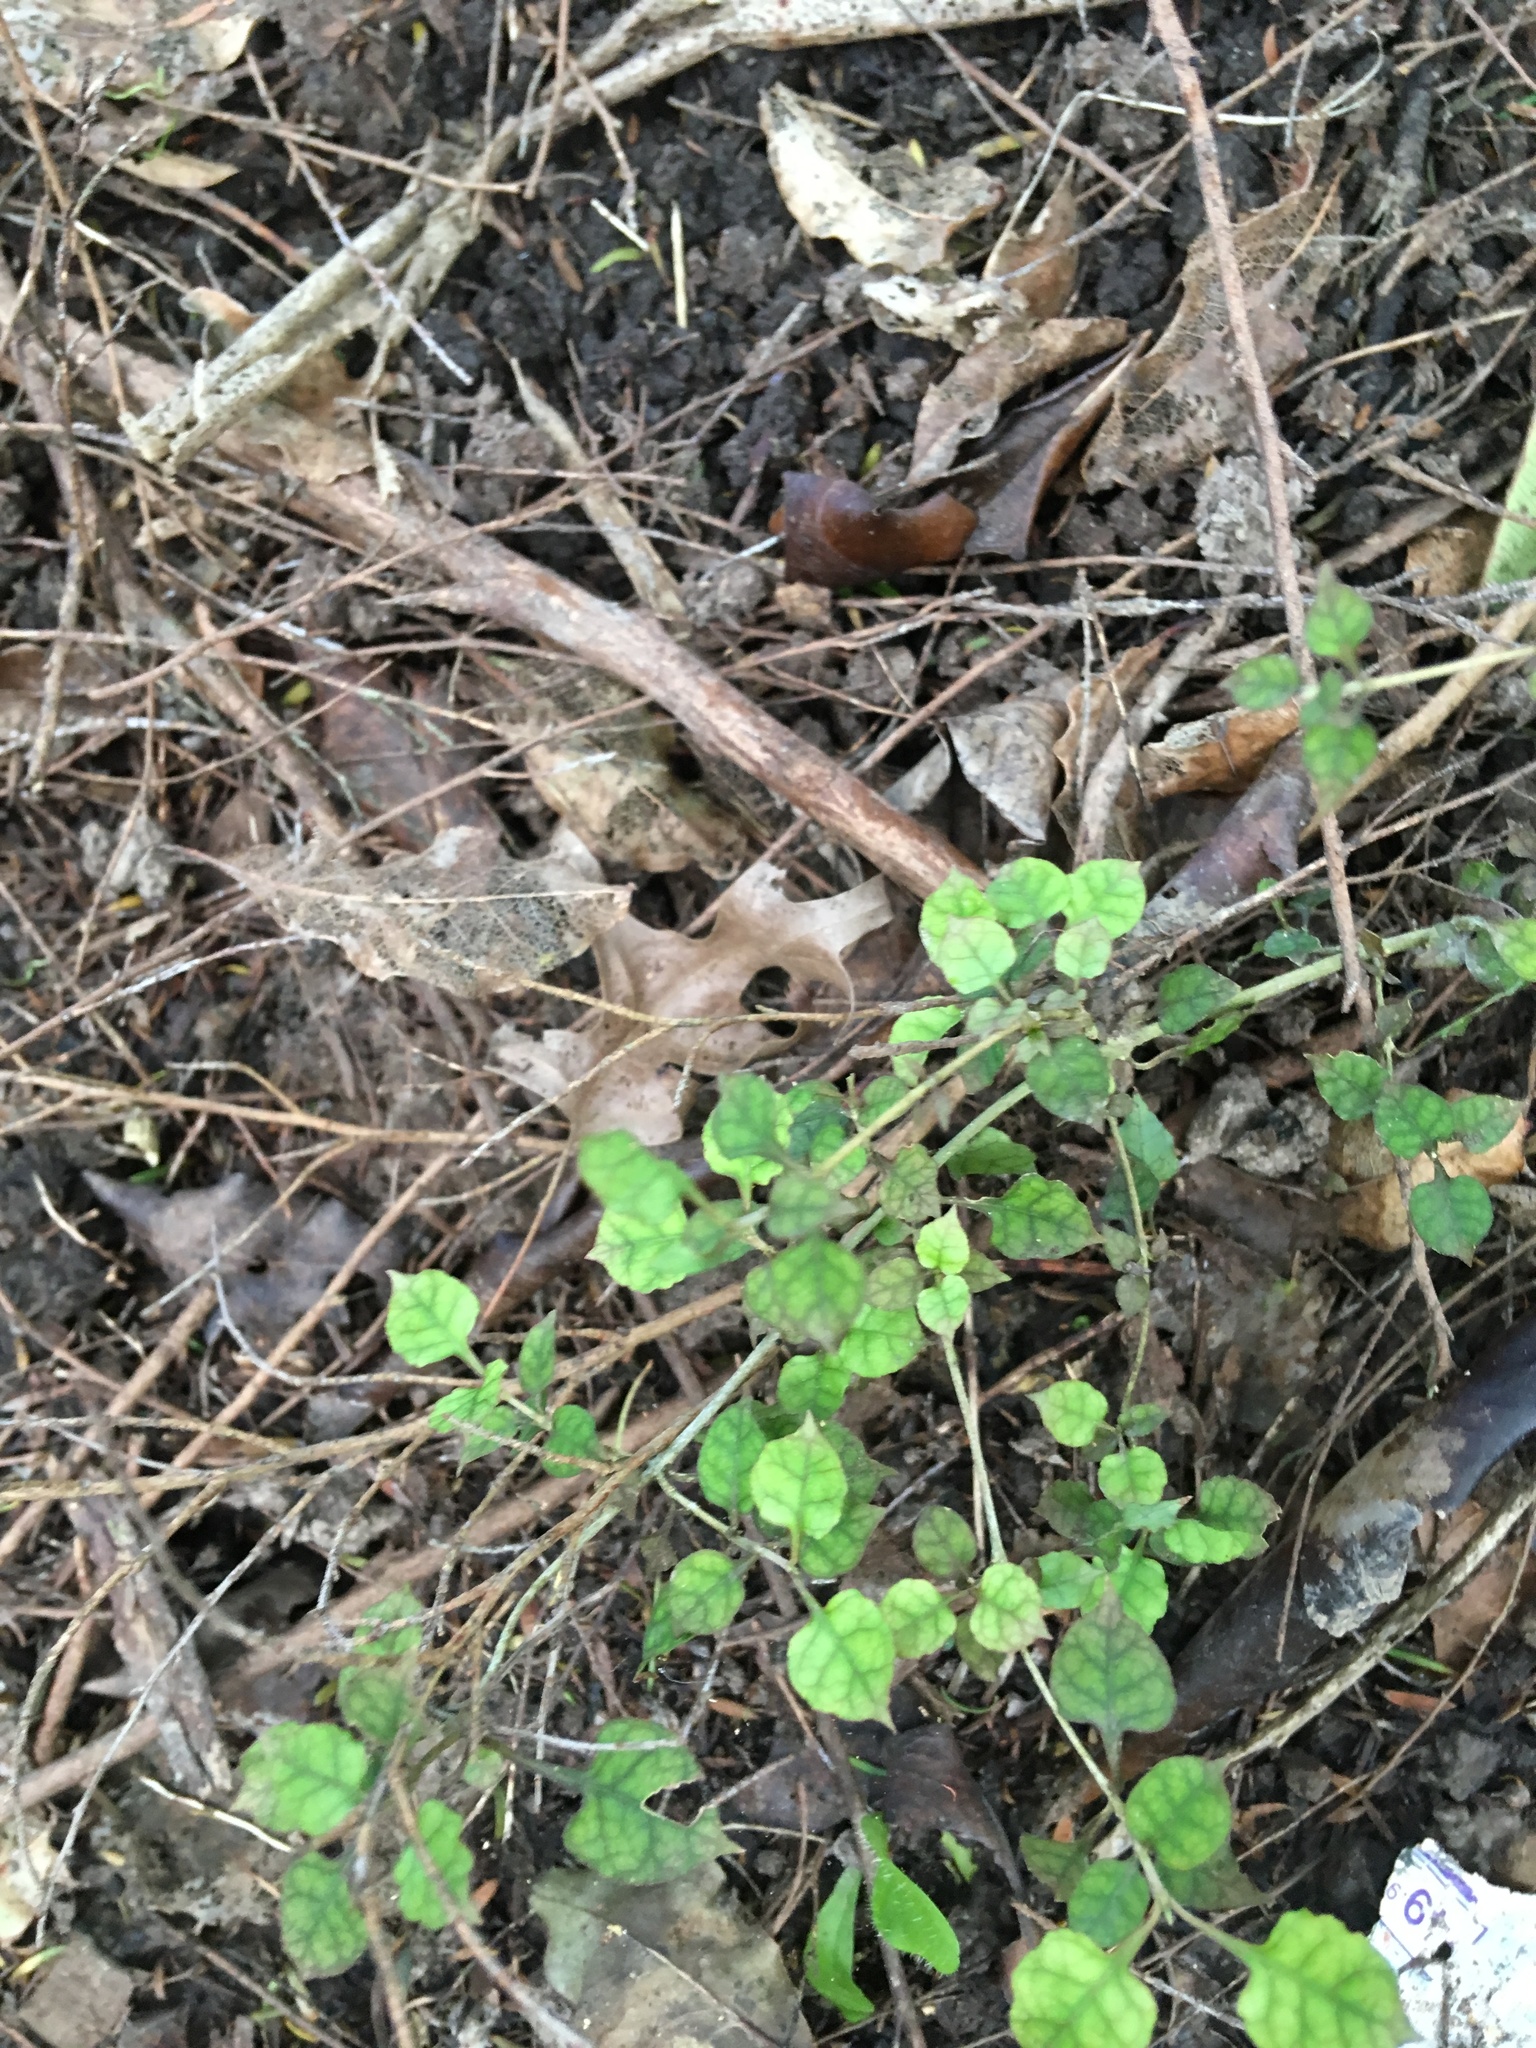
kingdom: Plantae
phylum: Tracheophyta
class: Magnoliopsida
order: Gentianales
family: Rubiaceae
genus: Coprosma
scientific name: Coprosma areolata
